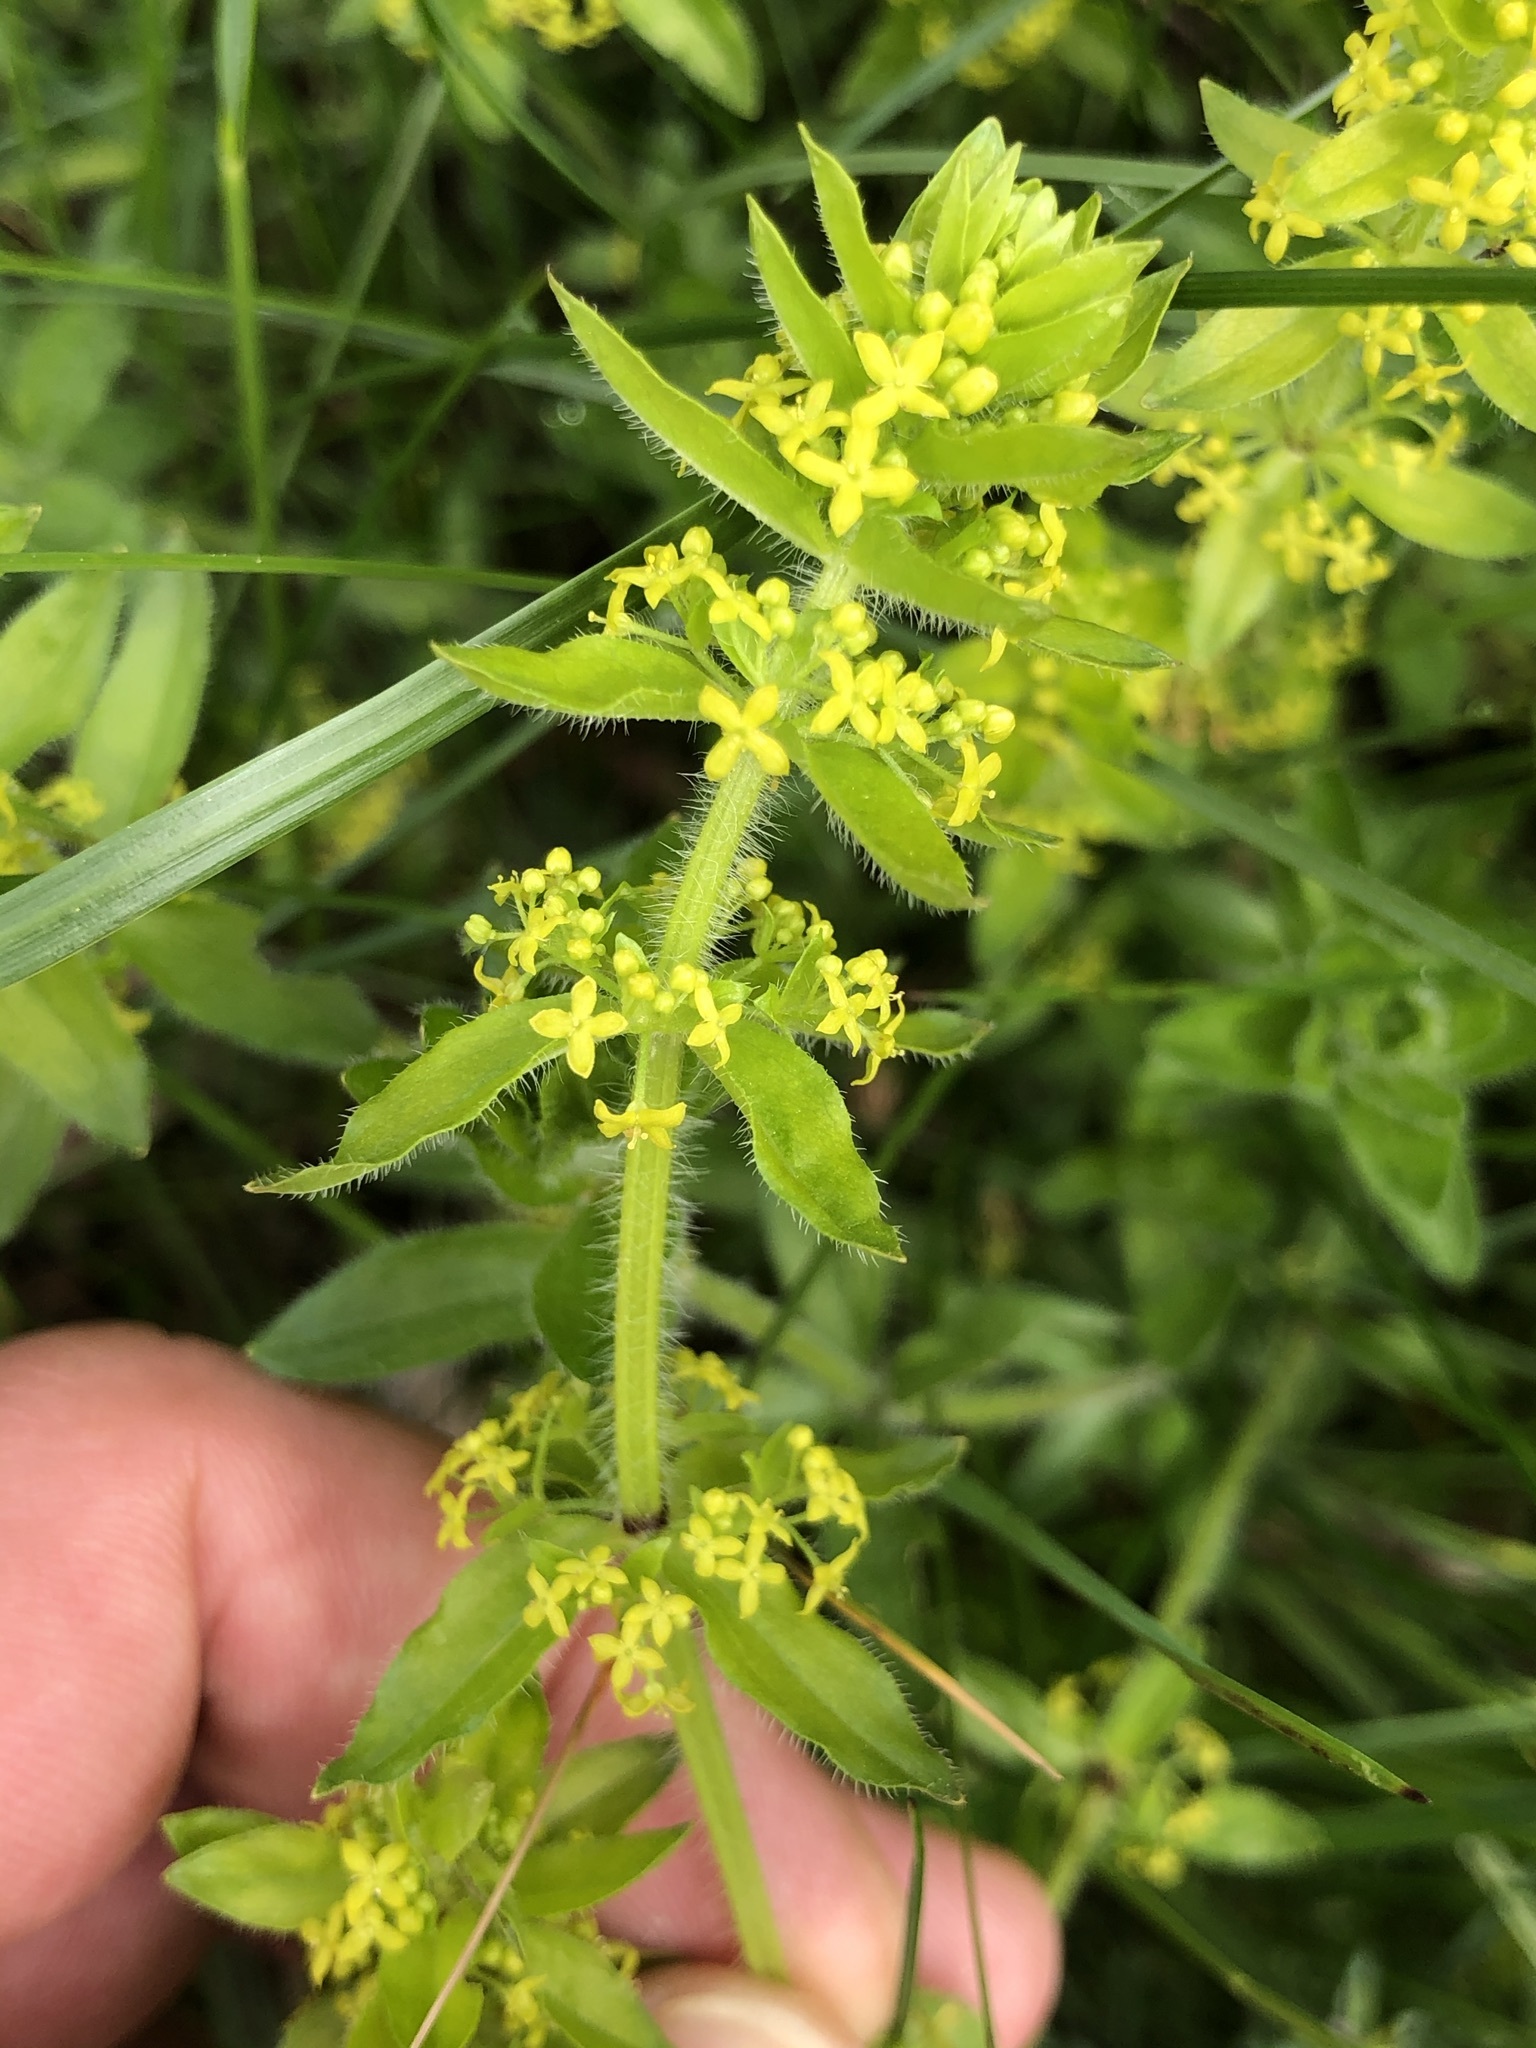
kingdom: Plantae
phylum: Tracheophyta
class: Magnoliopsida
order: Gentianales
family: Rubiaceae
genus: Cruciata
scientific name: Cruciata laevipes
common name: Crosswort
